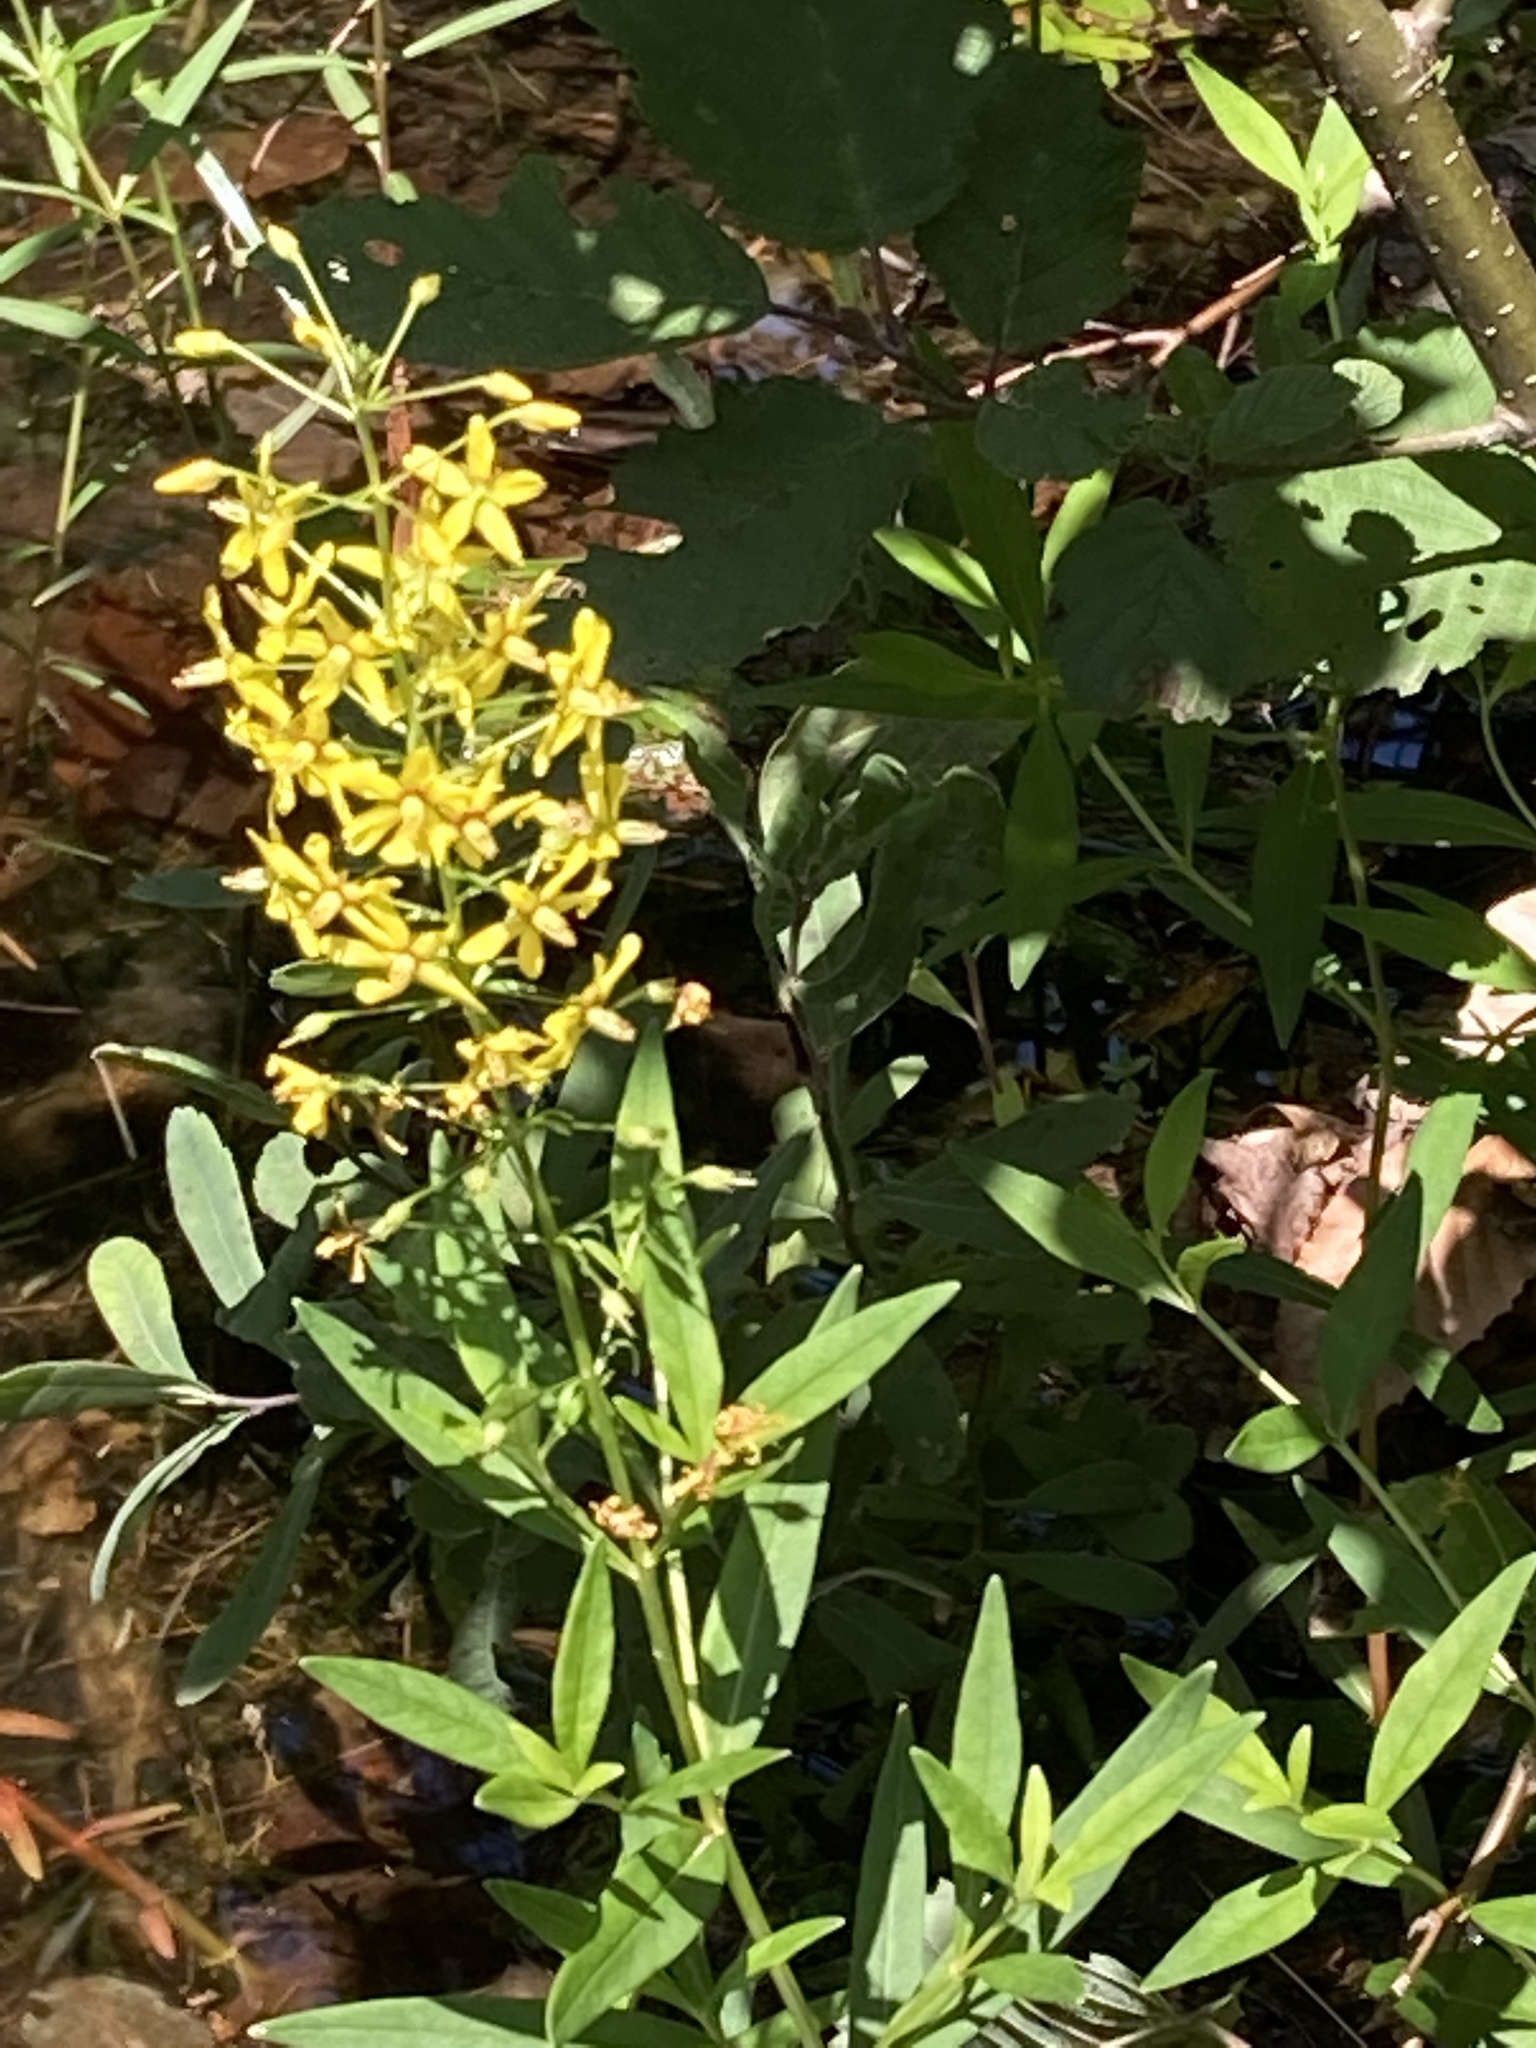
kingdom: Plantae
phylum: Tracheophyta
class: Magnoliopsida
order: Ericales
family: Primulaceae
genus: Lysimachia
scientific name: Lysimachia terrestris
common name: Lake loosestrife
